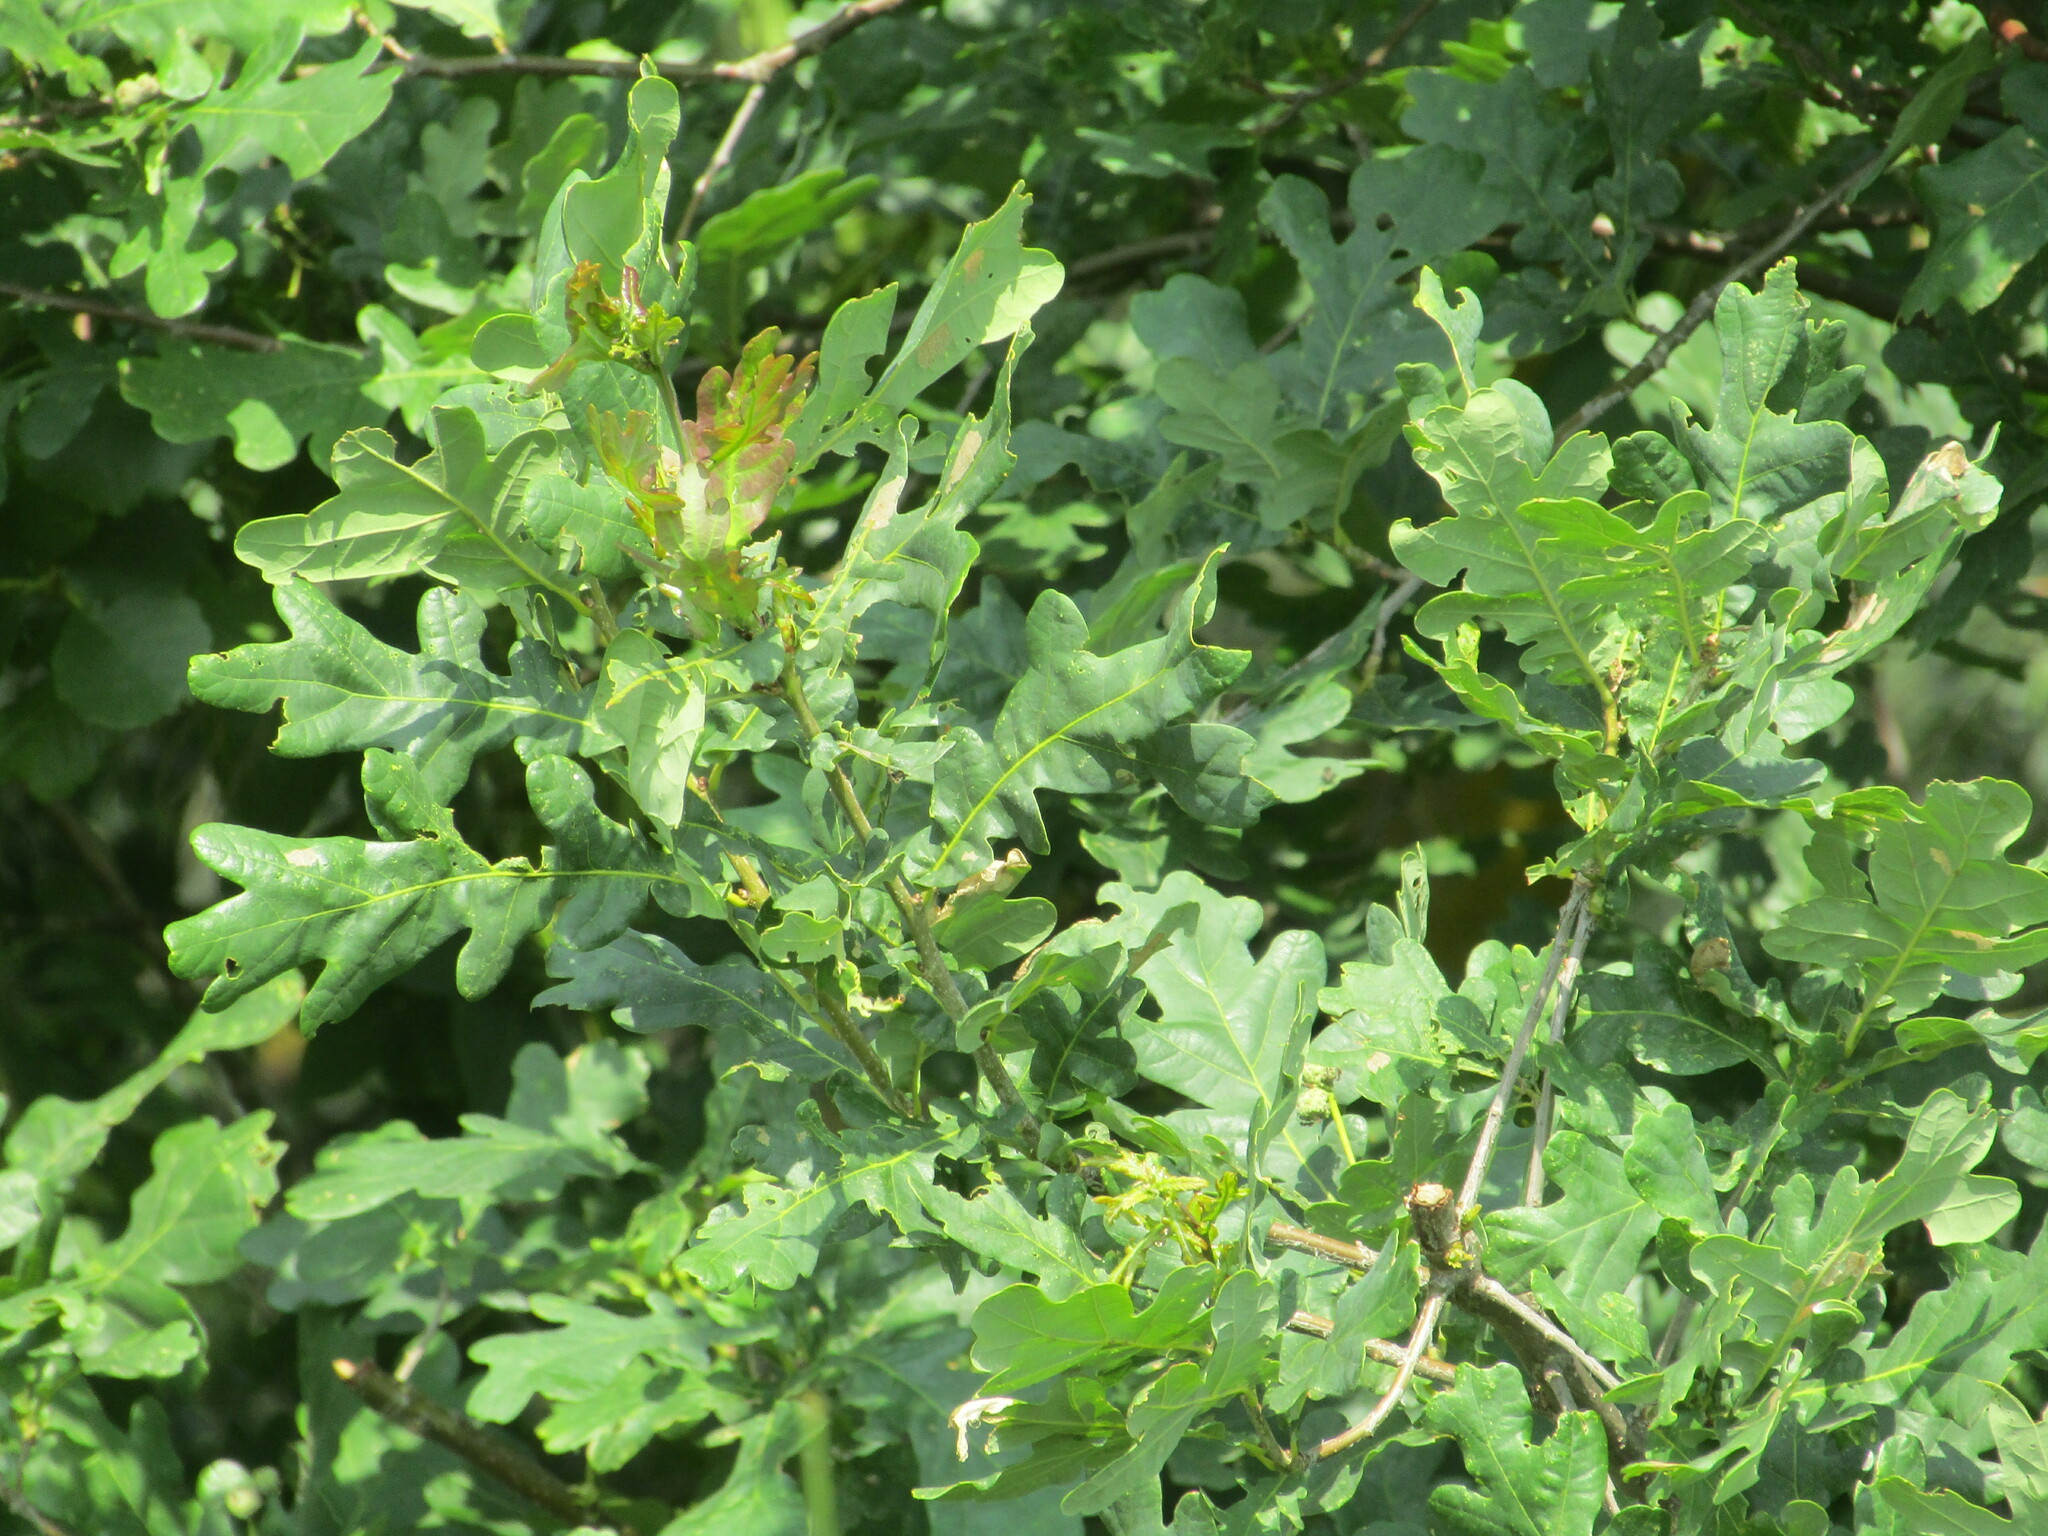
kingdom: Plantae
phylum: Tracheophyta
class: Magnoliopsida
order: Fagales
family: Fagaceae
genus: Quercus
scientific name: Quercus robur
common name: Pedunculate oak
